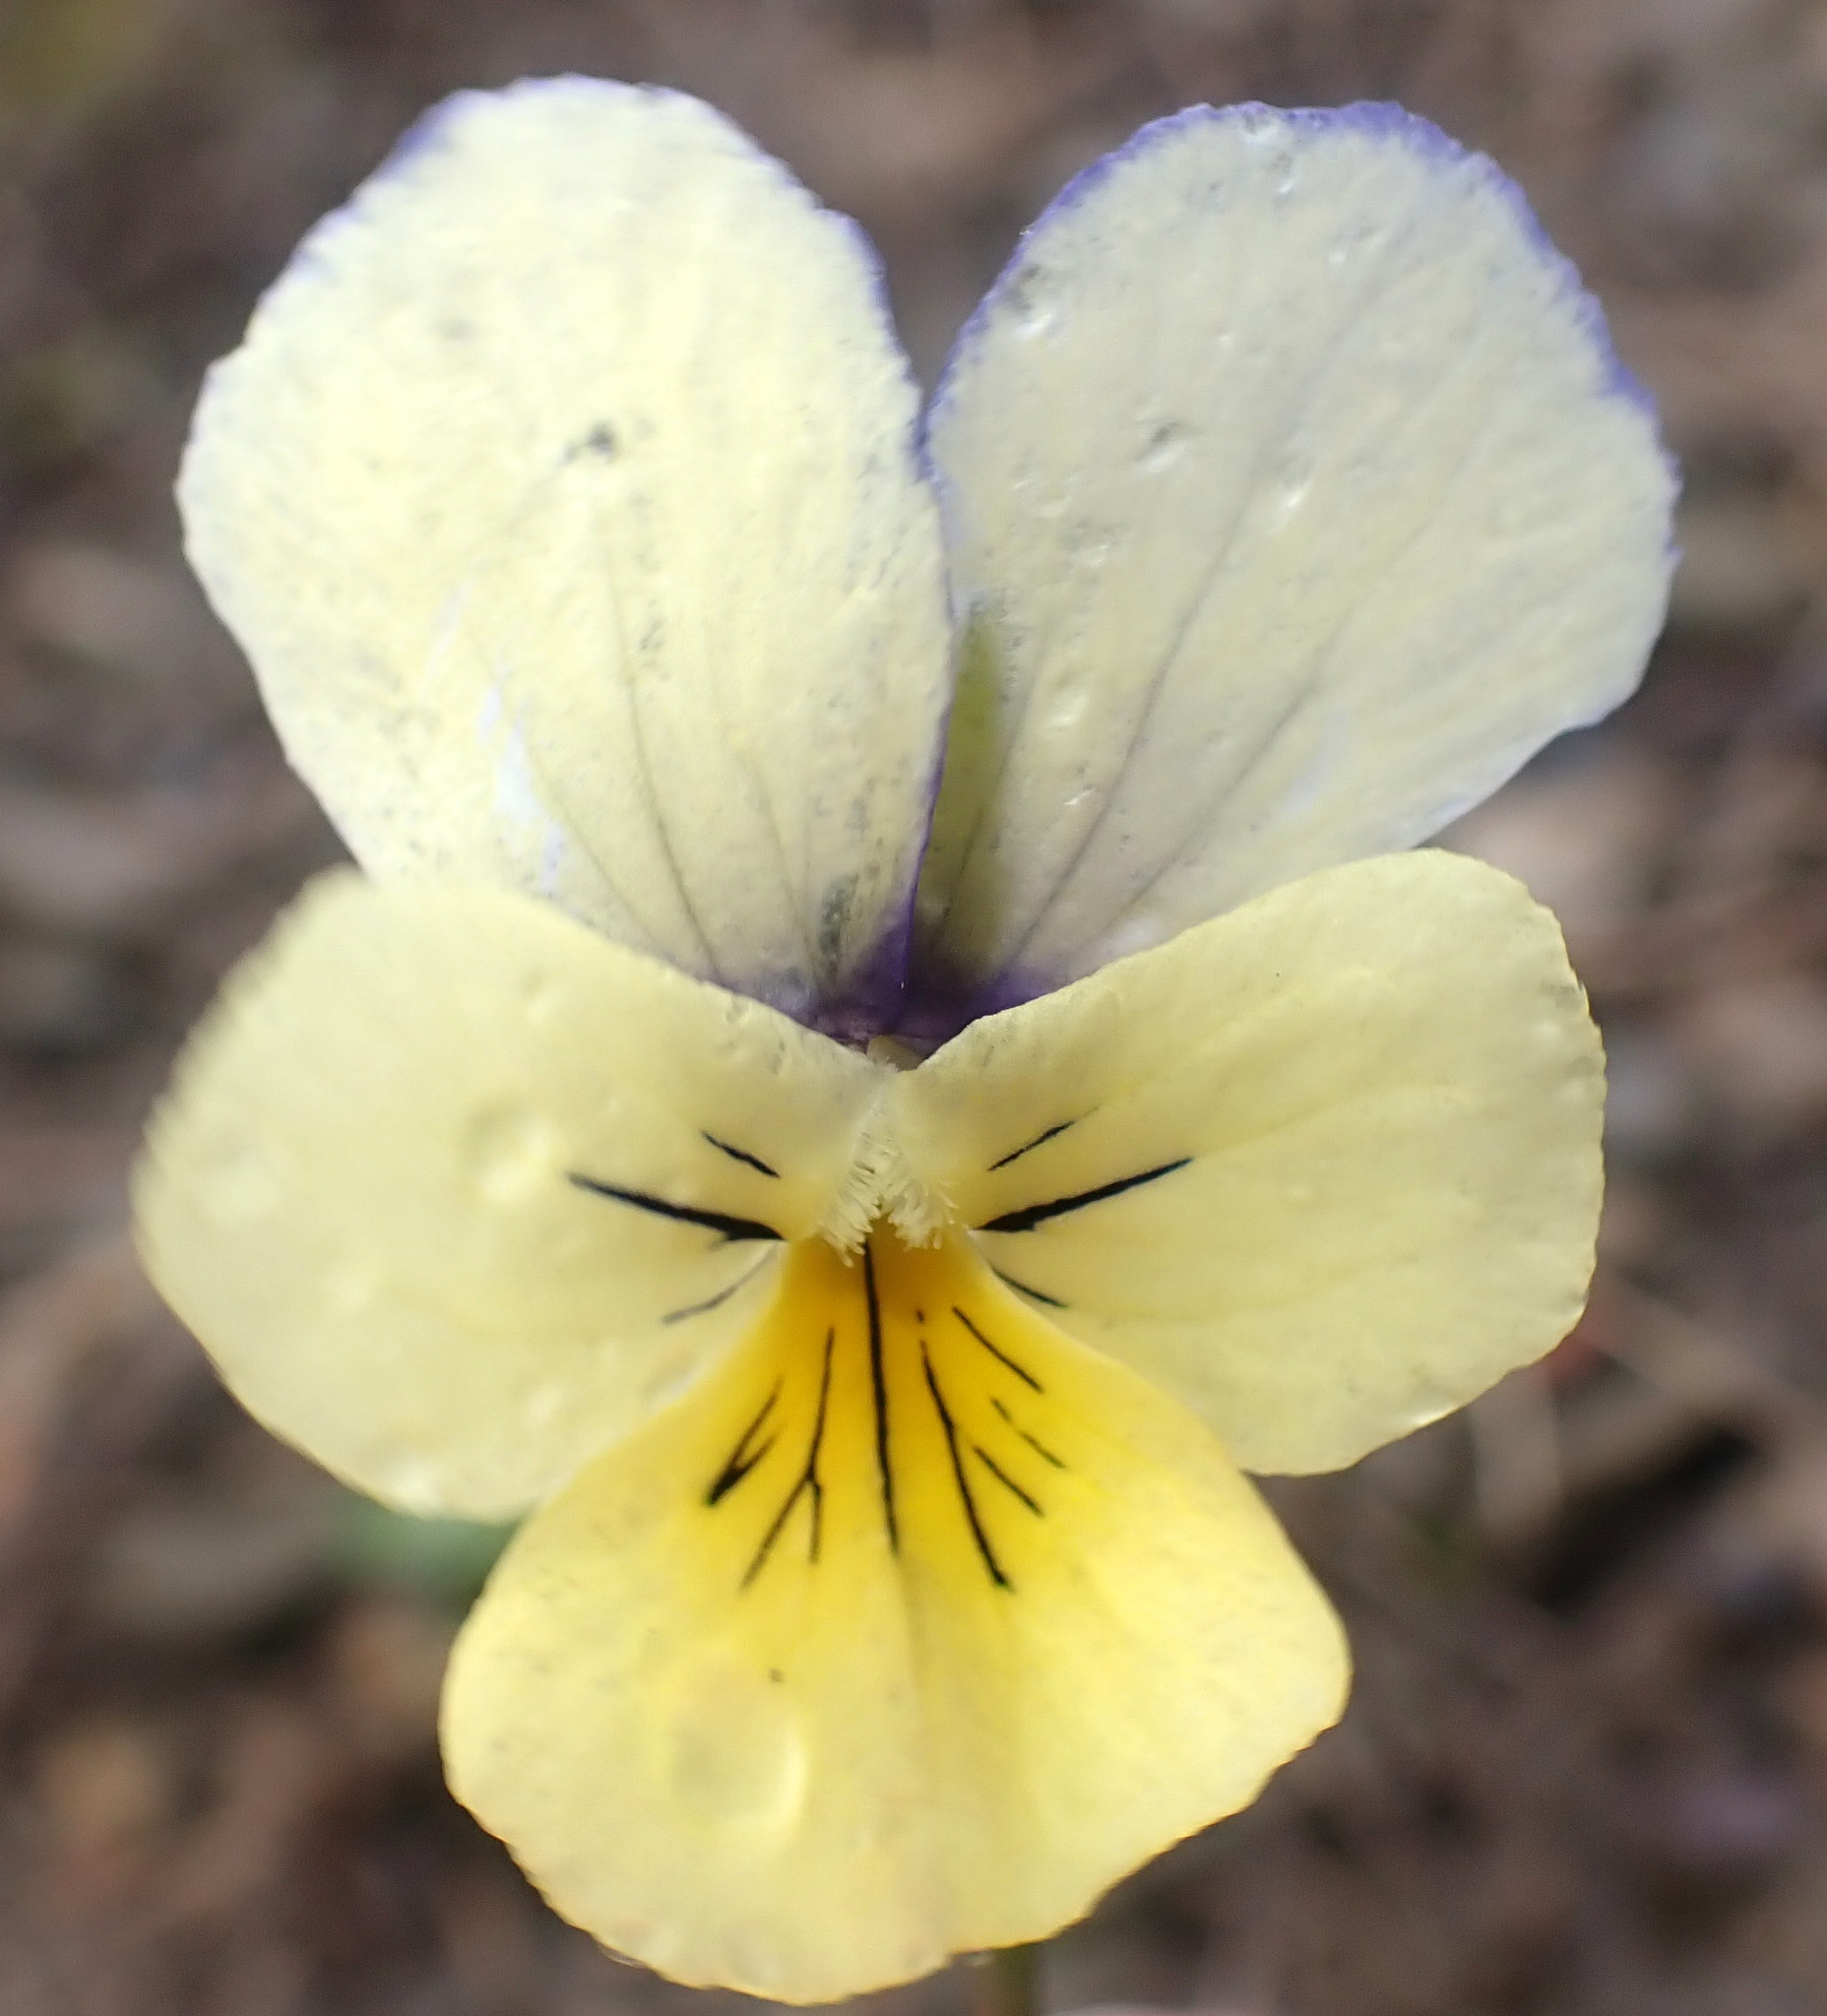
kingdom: Plantae
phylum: Tracheophyta
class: Magnoliopsida
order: Malpighiales
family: Violaceae
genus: Viola
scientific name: Viola lutea
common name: Mountain pansy
